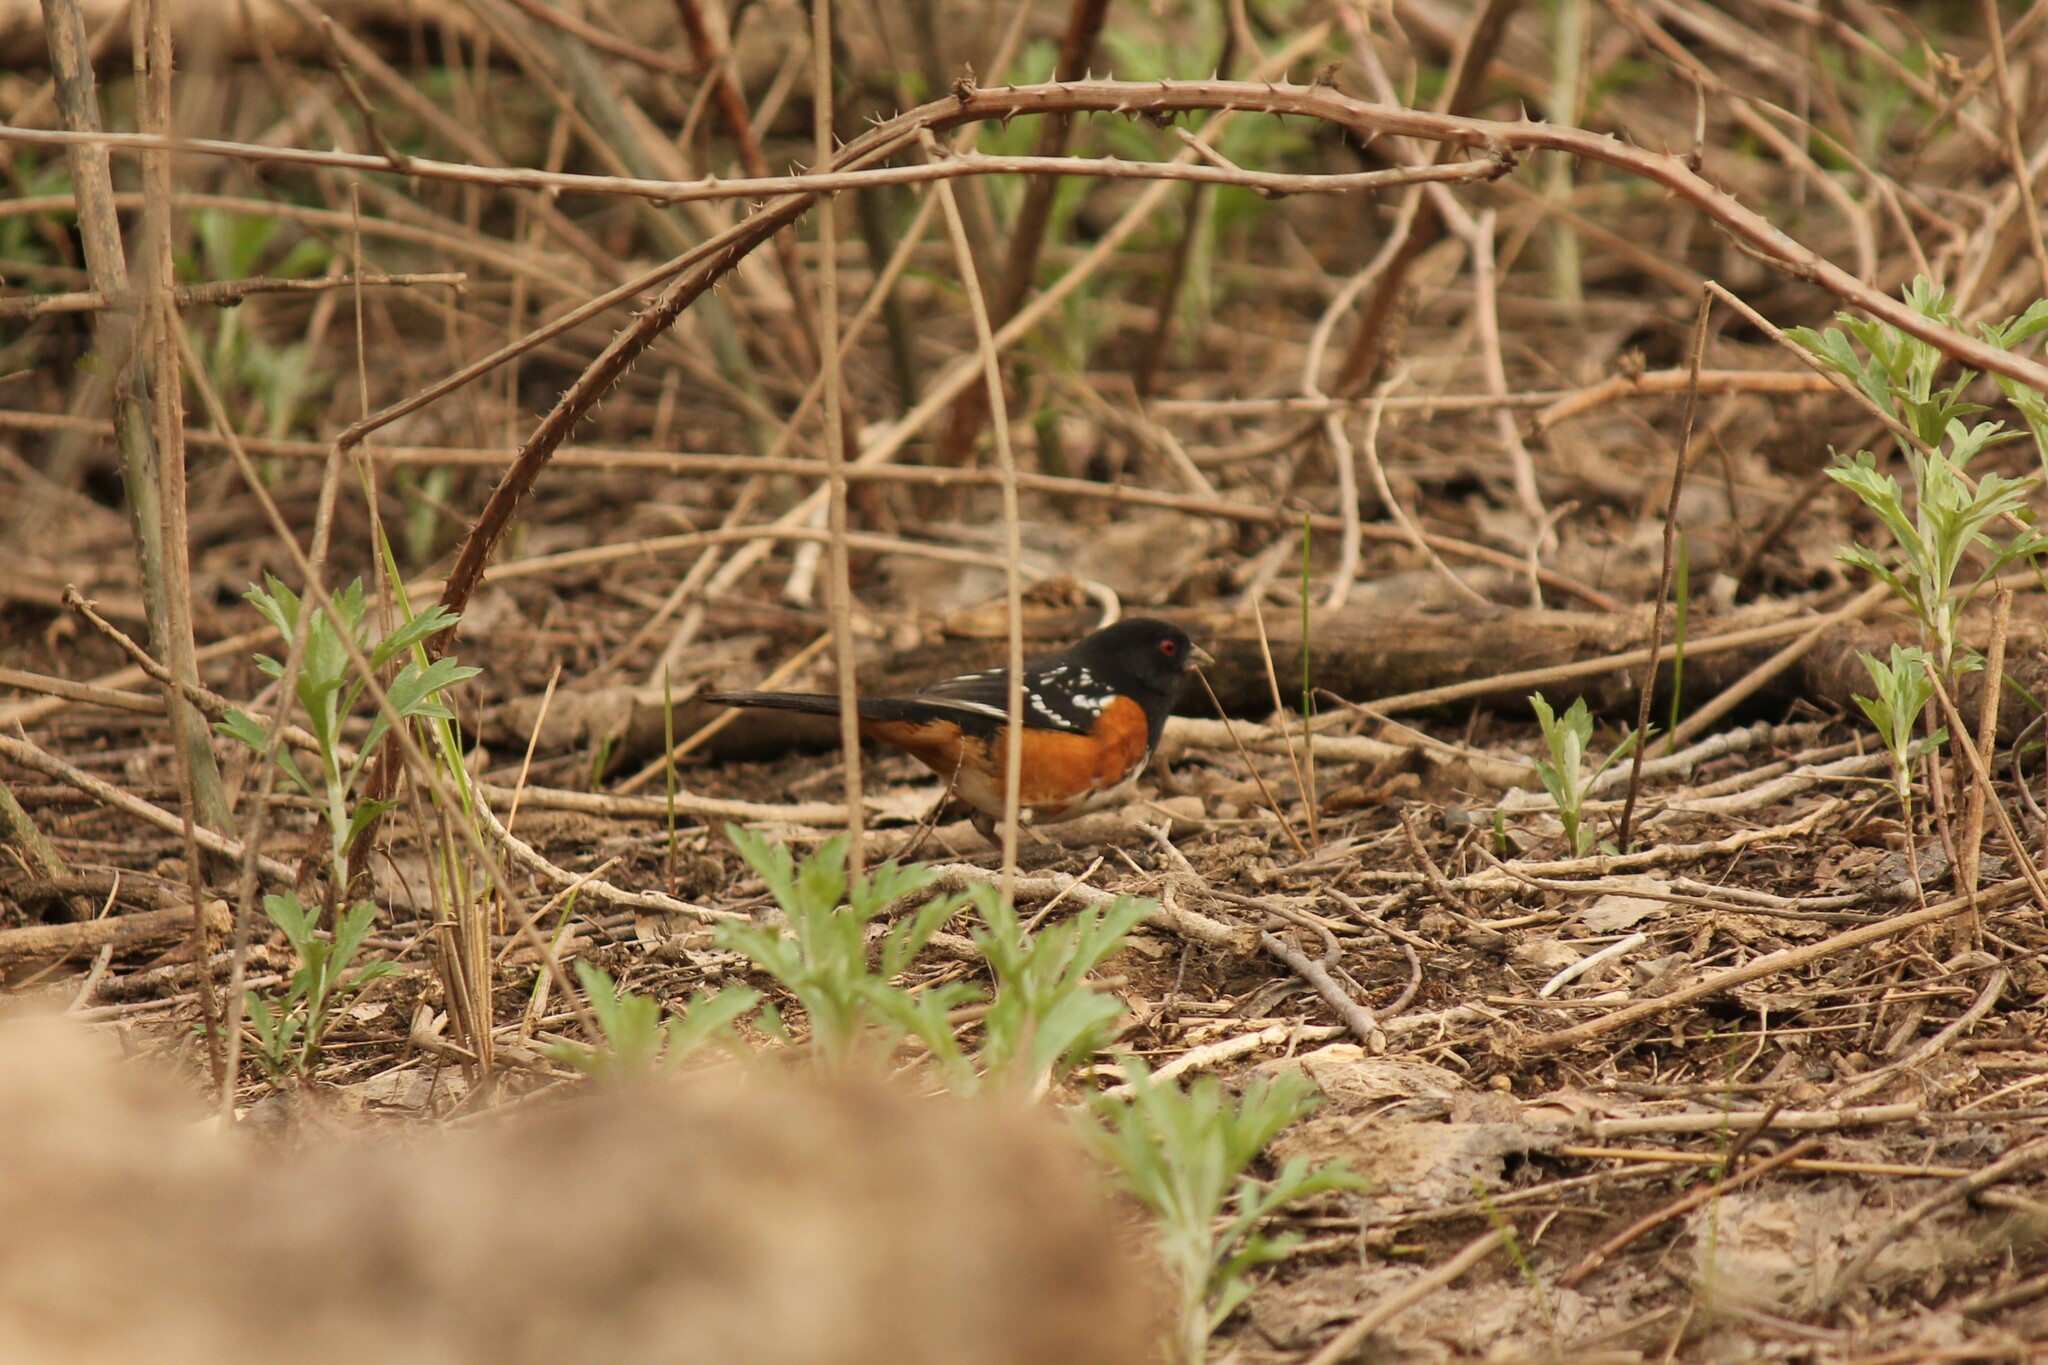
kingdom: Animalia
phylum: Chordata
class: Aves
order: Passeriformes
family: Passerellidae
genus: Pipilo
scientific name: Pipilo maculatus
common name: Spotted towhee
